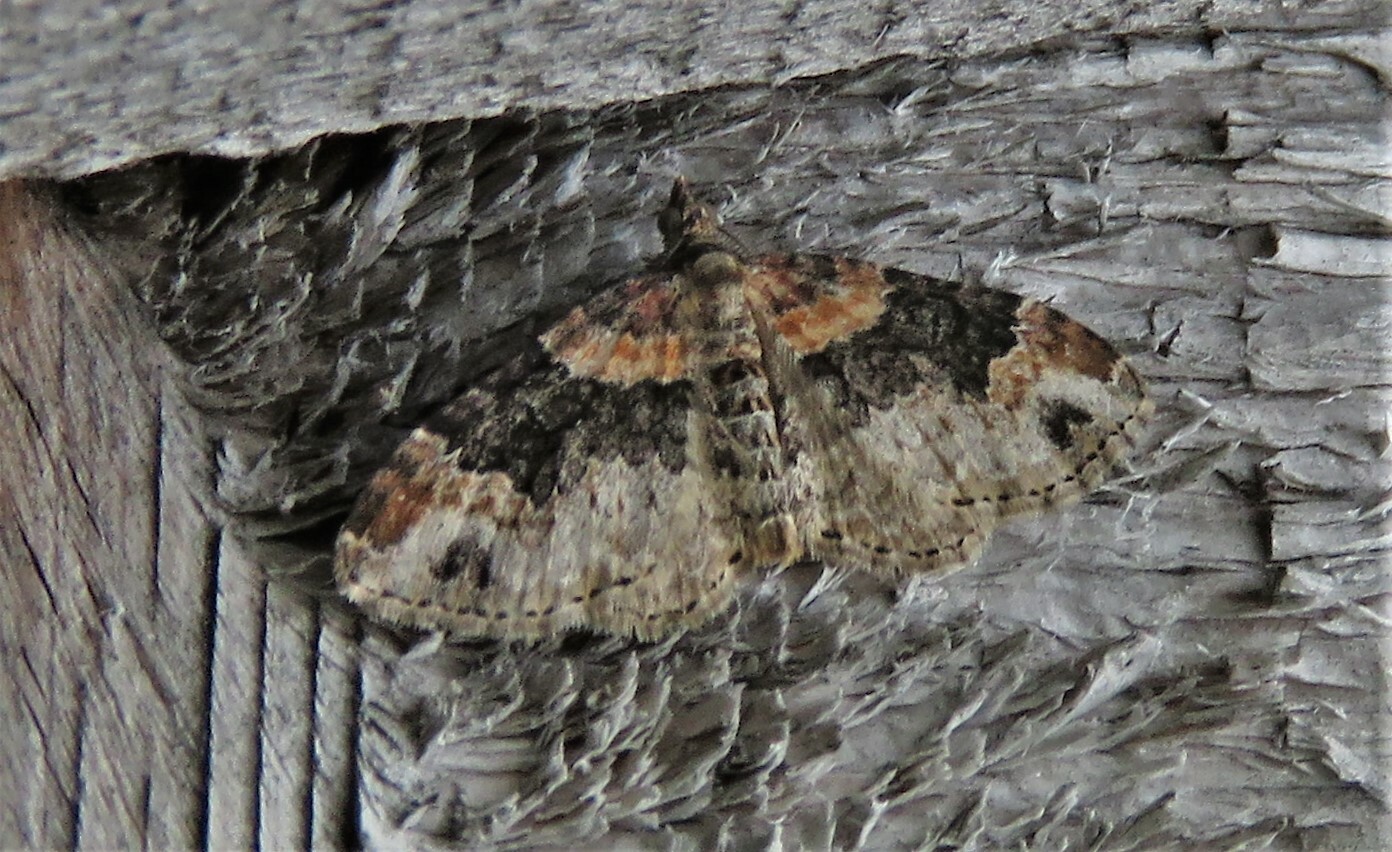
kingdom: Animalia
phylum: Arthropoda
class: Insecta
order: Lepidoptera
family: Geometridae
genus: Xanthorhoe
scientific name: Xanthorhoe ferrugata
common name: Dark-barred twin-spot carpet
